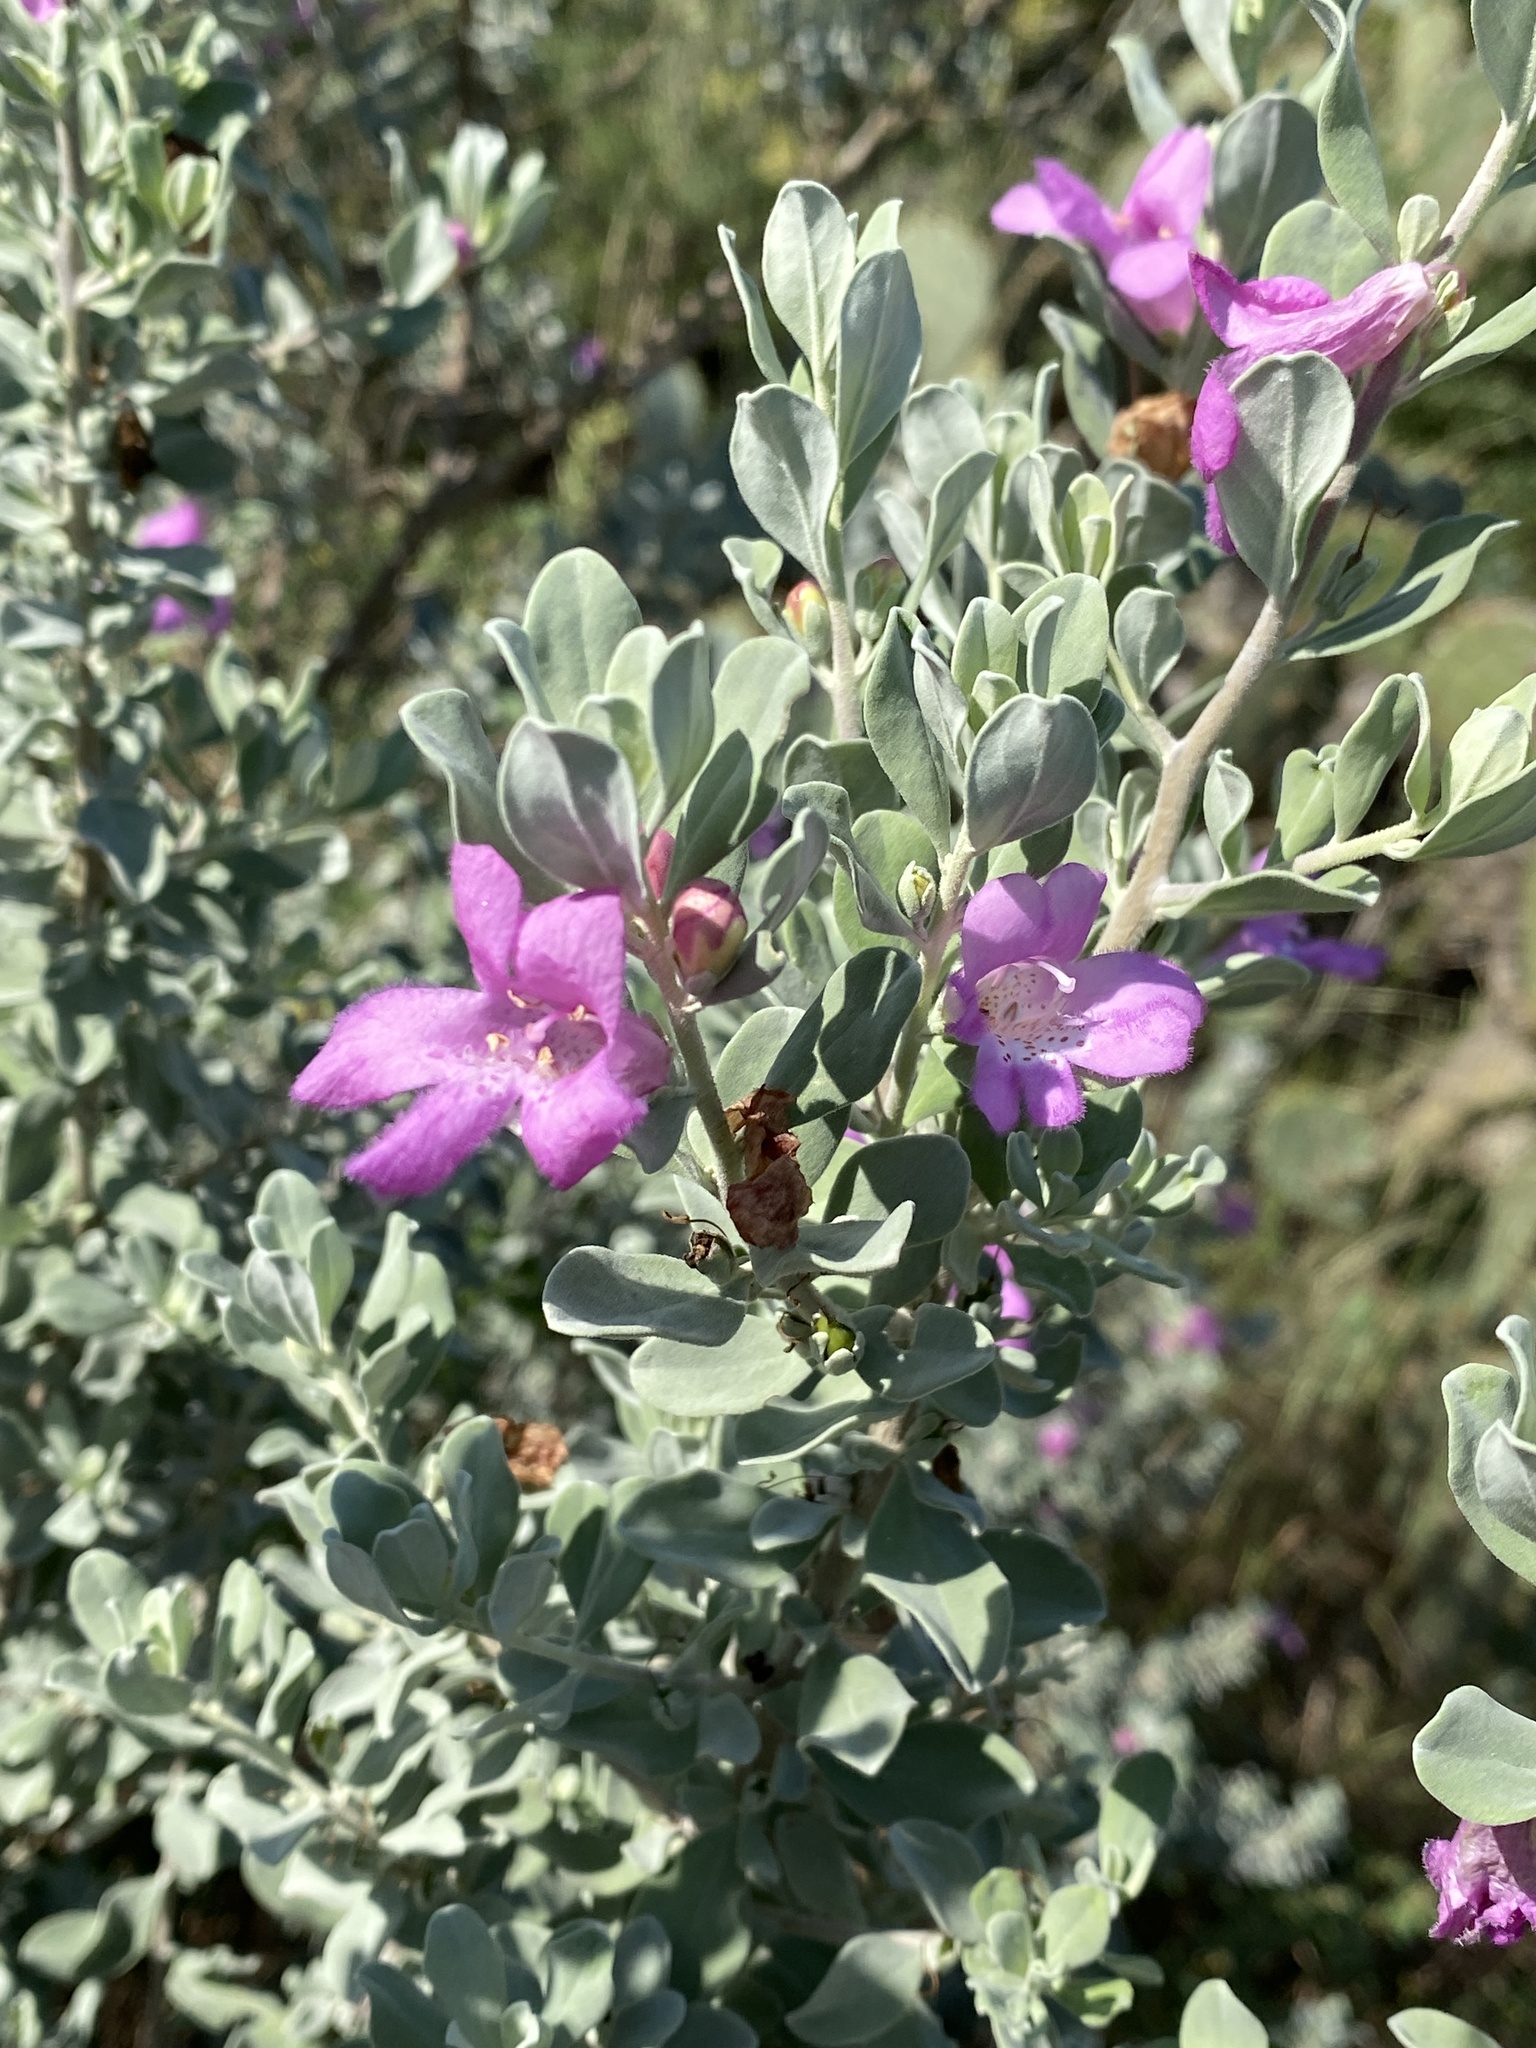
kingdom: Plantae
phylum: Tracheophyta
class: Magnoliopsida
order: Lamiales
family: Scrophulariaceae
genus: Leucophyllum
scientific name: Leucophyllum frutescens
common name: Texas silverleaf
